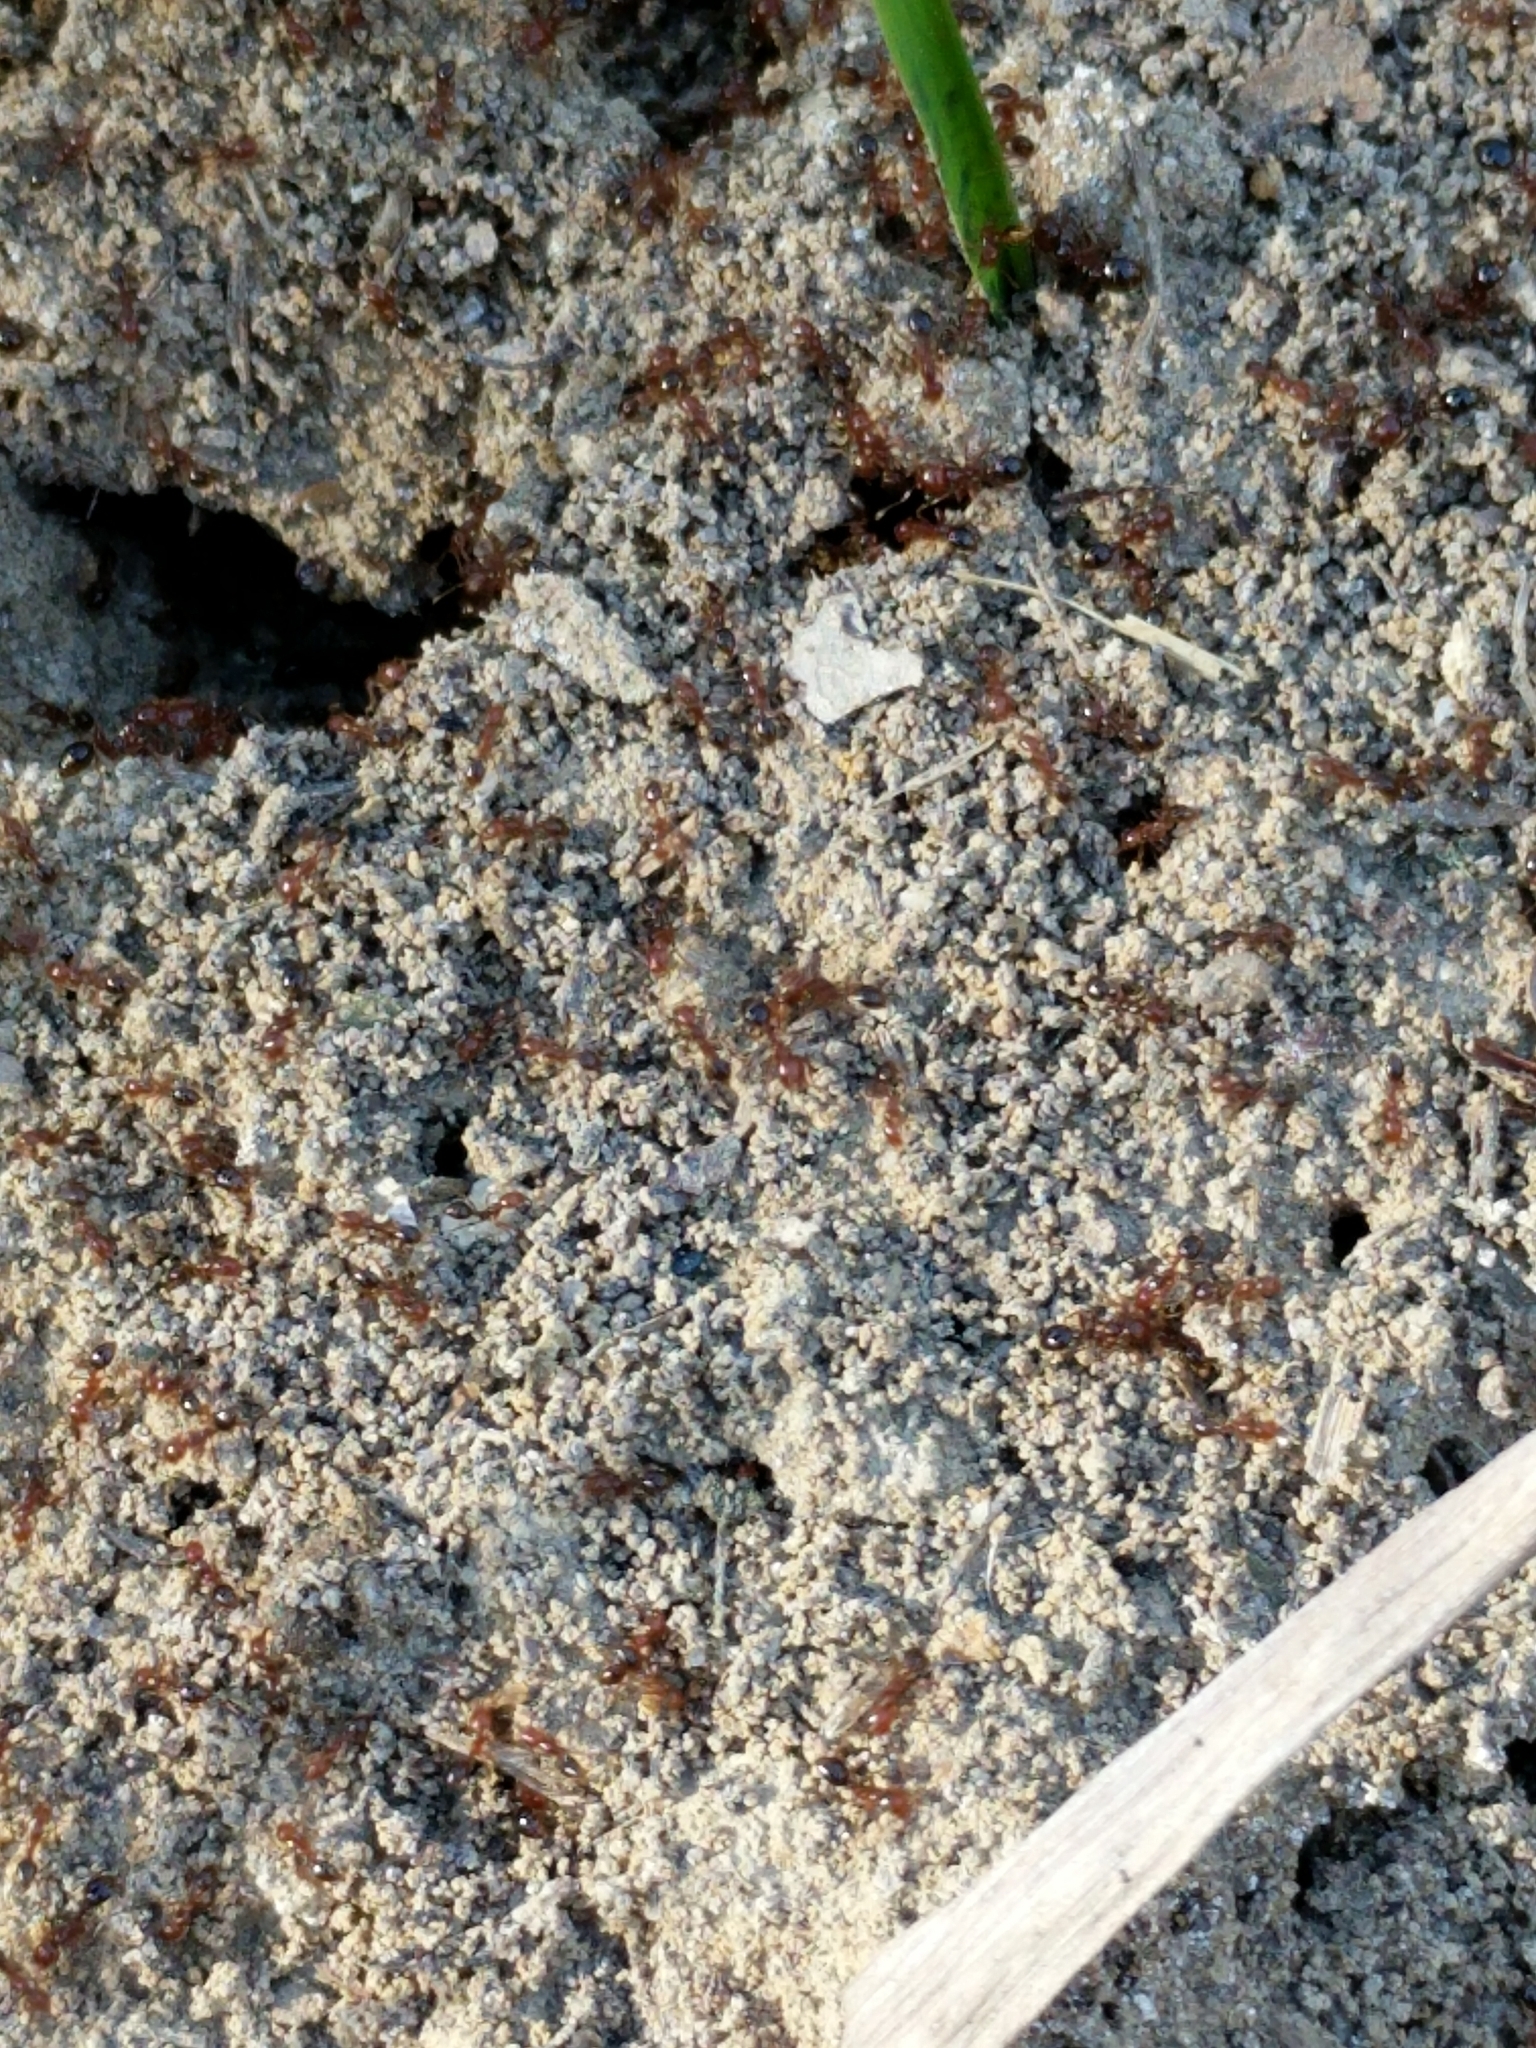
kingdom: Animalia
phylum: Arthropoda
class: Insecta
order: Hymenoptera
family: Formicidae
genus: Solenopsis
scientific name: Solenopsis invicta
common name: Red imported fire ant
